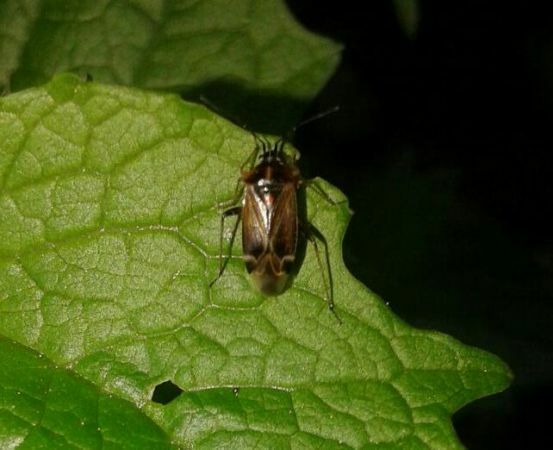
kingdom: Animalia
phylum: Arthropoda
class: Insecta
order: Hemiptera
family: Miridae
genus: Harpocera
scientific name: Harpocera thoracica
